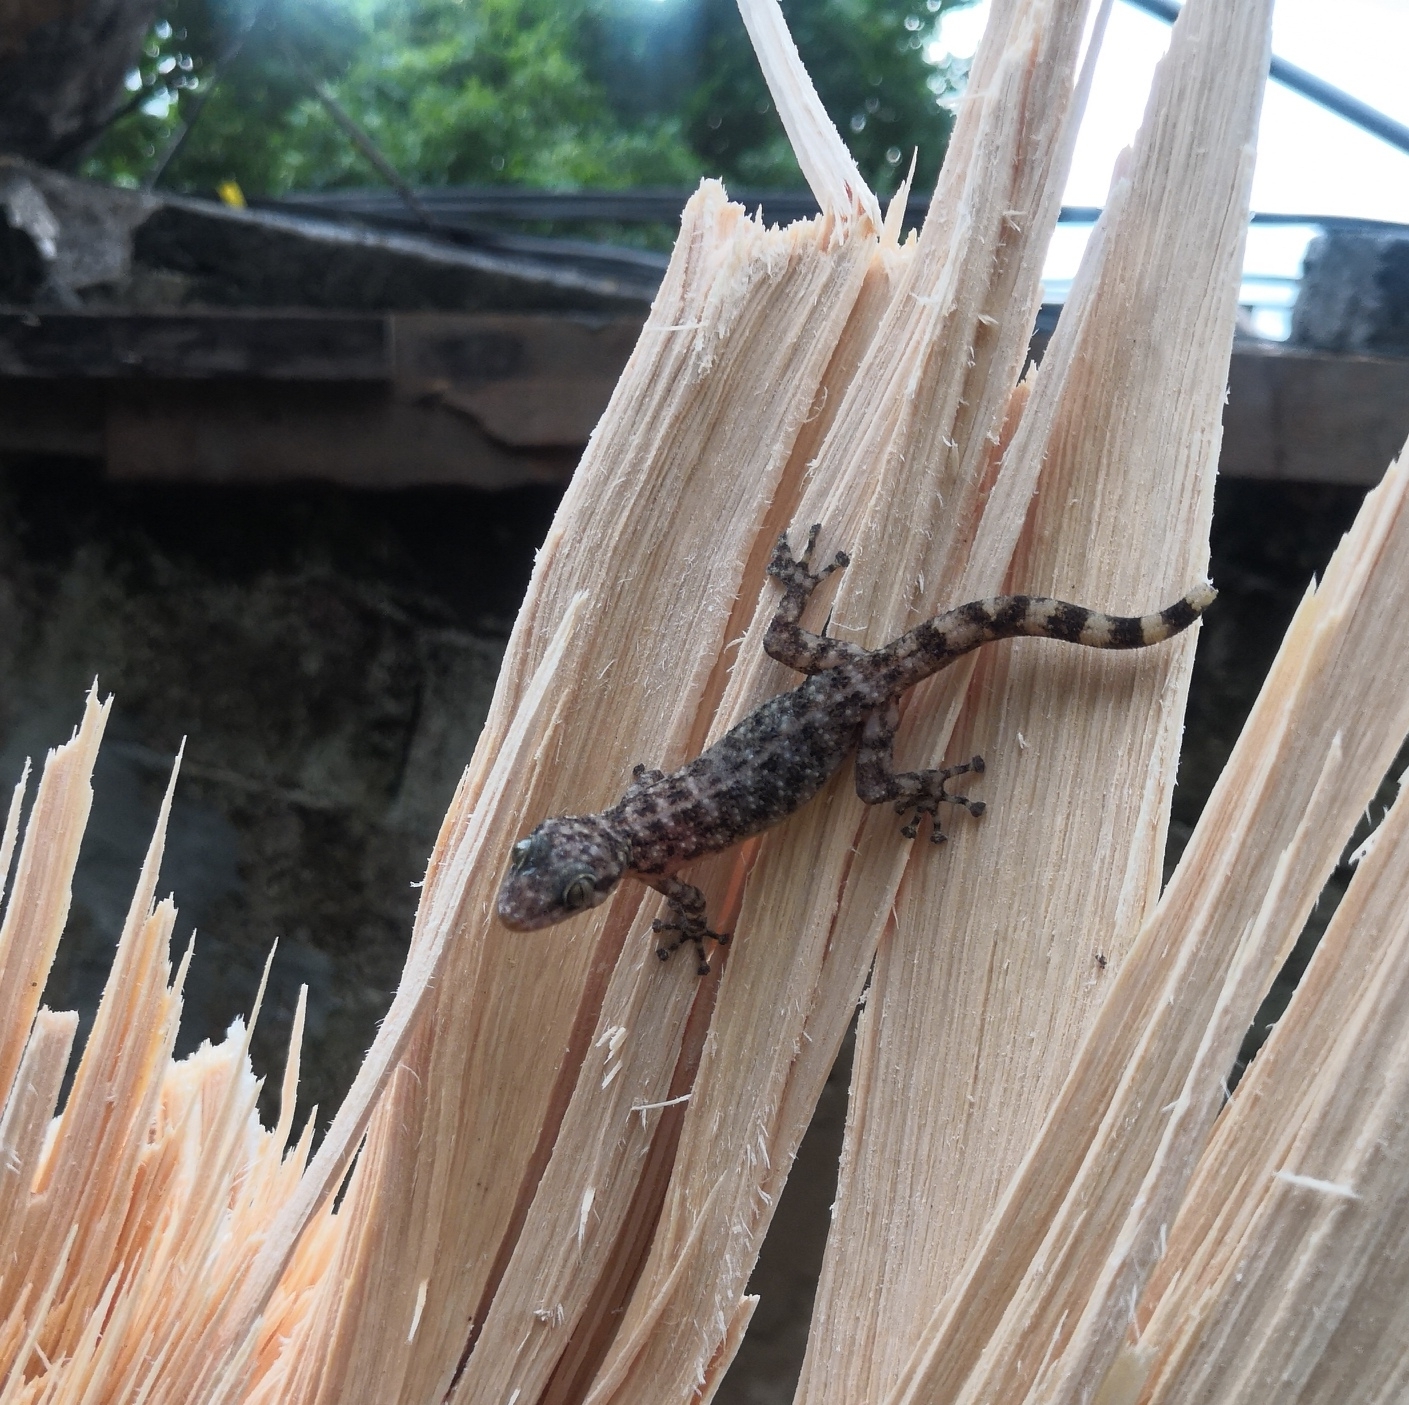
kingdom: Animalia
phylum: Chordata
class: Squamata
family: Phyllodactylidae
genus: Phyllodactylus
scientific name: Phyllodactylus tuberculosus
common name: Yellowbelly  gecko
